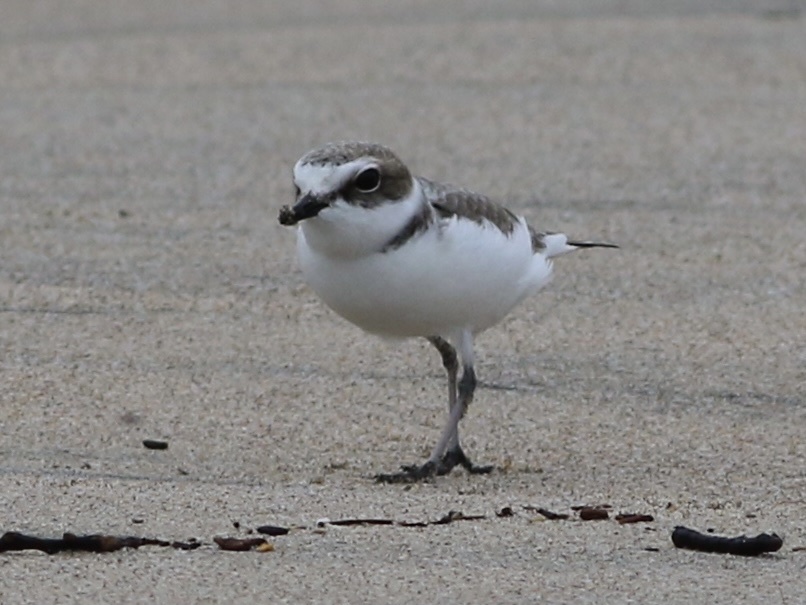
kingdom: Animalia
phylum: Chordata
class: Aves
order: Charadriiformes
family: Charadriidae
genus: Anarhynchus
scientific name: Anarhynchus
